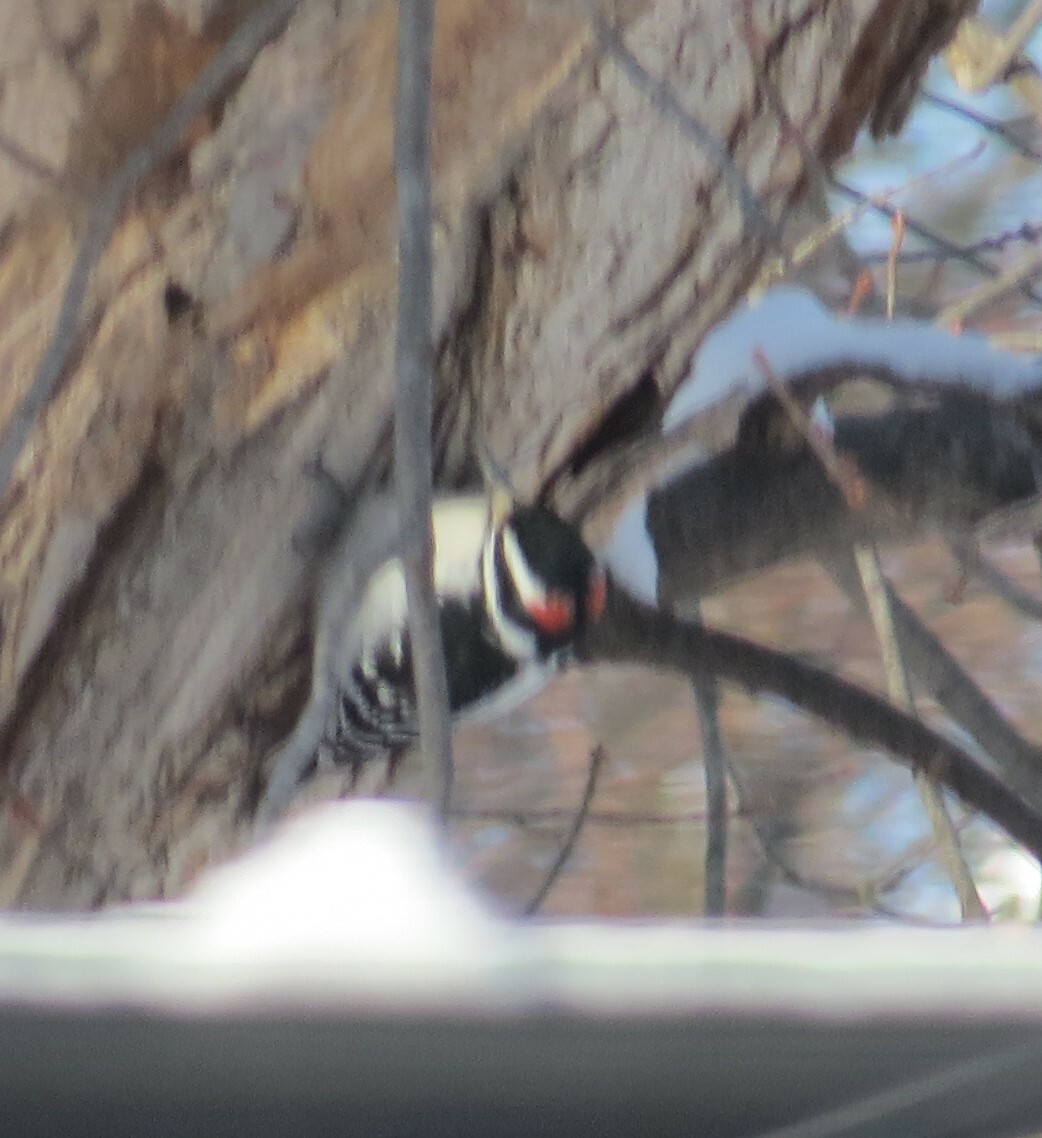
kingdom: Animalia
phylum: Chordata
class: Aves
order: Piciformes
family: Picidae
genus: Leuconotopicus
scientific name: Leuconotopicus villosus
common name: Hairy woodpecker
